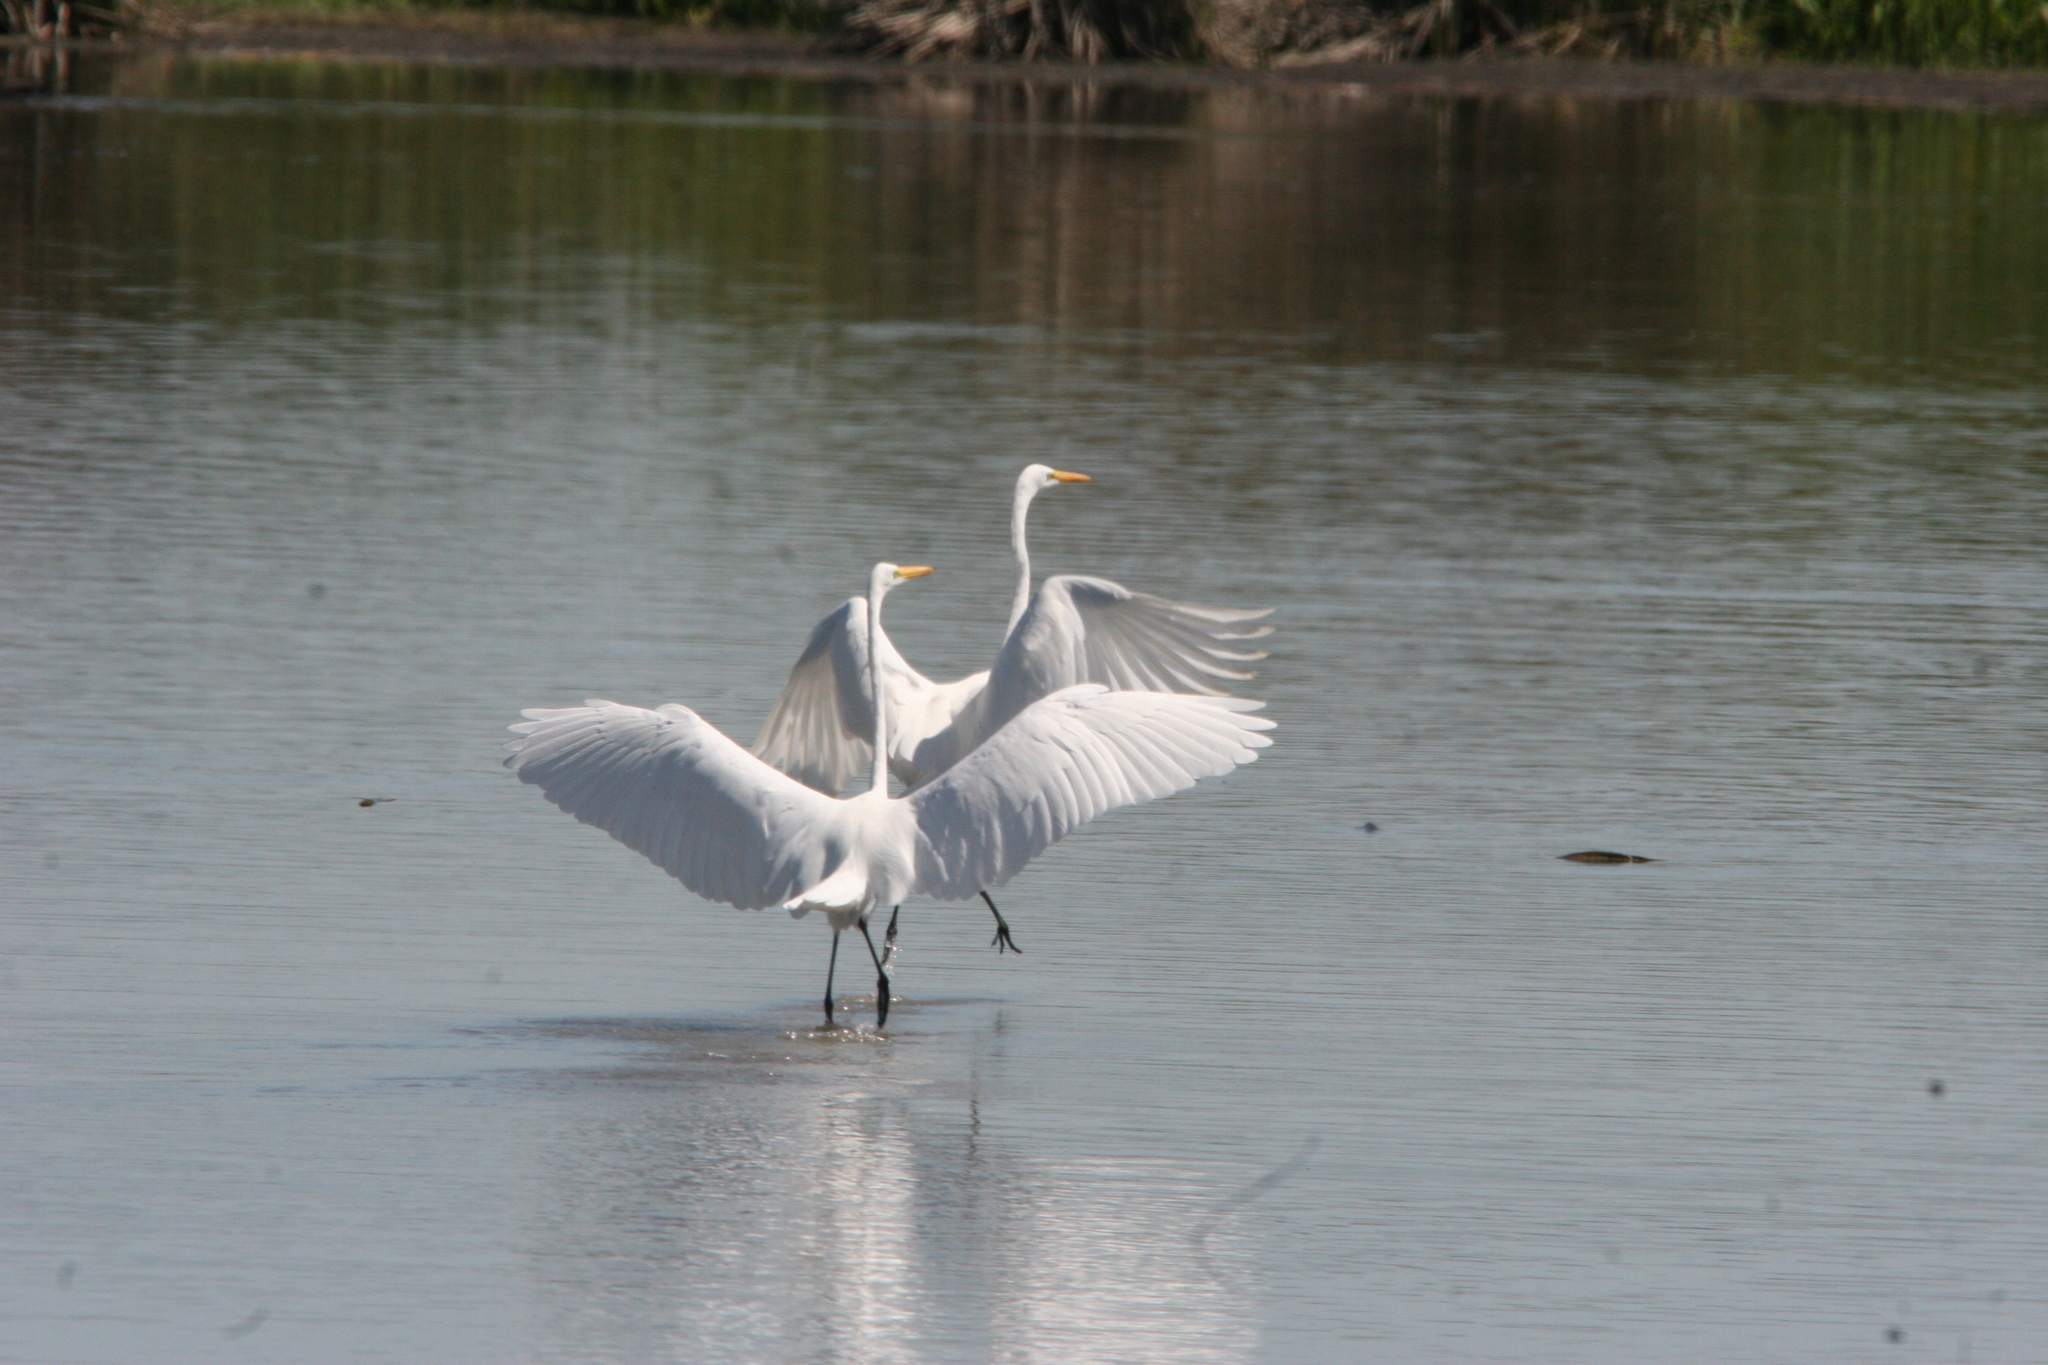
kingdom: Animalia
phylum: Chordata
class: Aves
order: Pelecaniformes
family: Ardeidae
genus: Ardea
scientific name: Ardea alba
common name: Great egret
